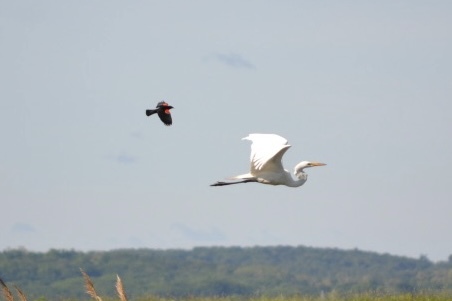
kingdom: Animalia
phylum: Chordata
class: Aves
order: Pelecaniformes
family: Ardeidae
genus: Ardea
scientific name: Ardea alba
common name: Great egret
